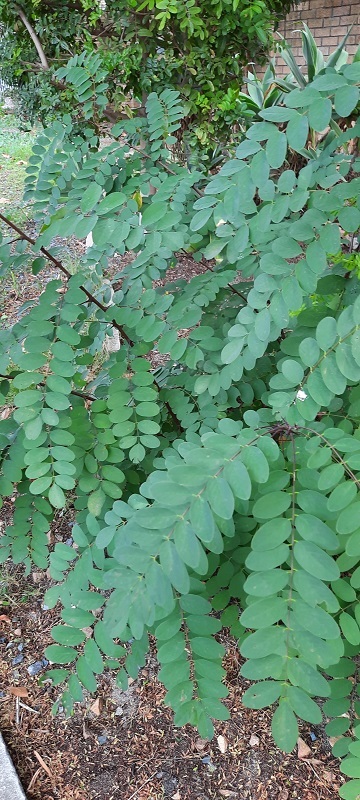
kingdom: Plantae
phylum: Tracheophyta
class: Magnoliopsida
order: Fabales
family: Fabaceae
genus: Robinia
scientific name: Robinia pseudoacacia
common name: Black locust
